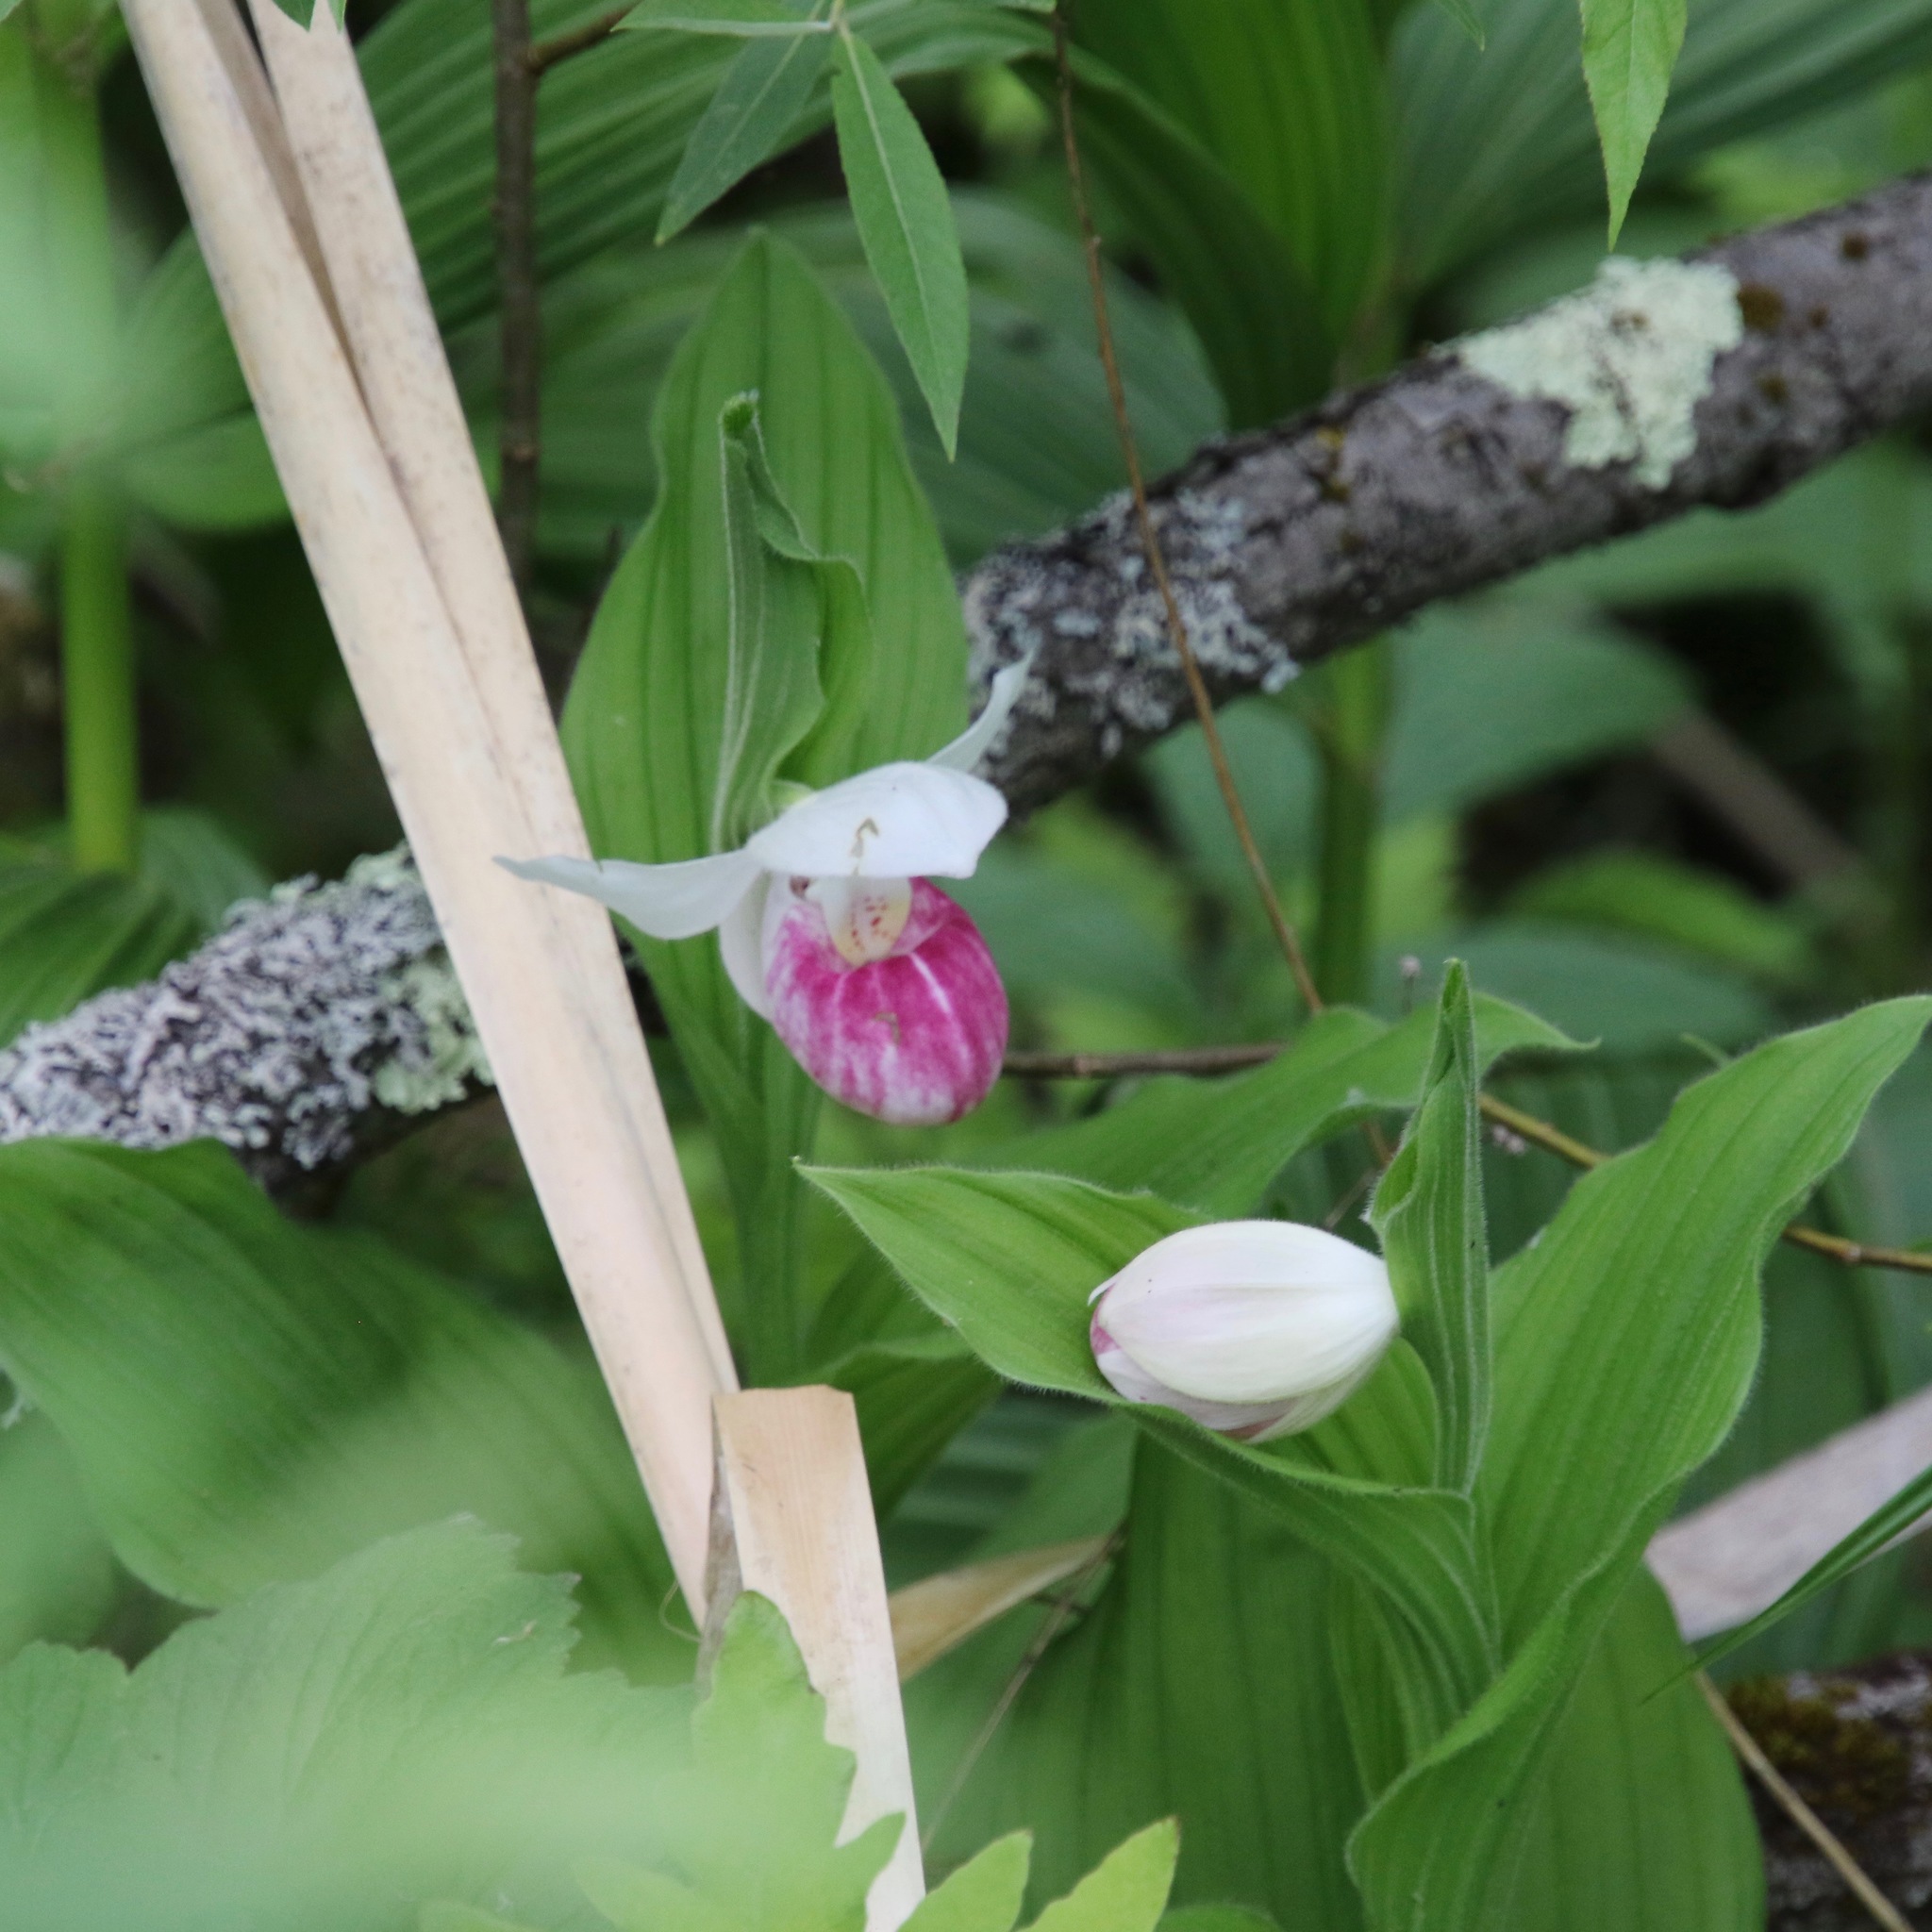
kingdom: Plantae
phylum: Tracheophyta
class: Liliopsida
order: Asparagales
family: Orchidaceae
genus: Cypripedium
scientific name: Cypripedium reginae
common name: Queen lady's-slipper
